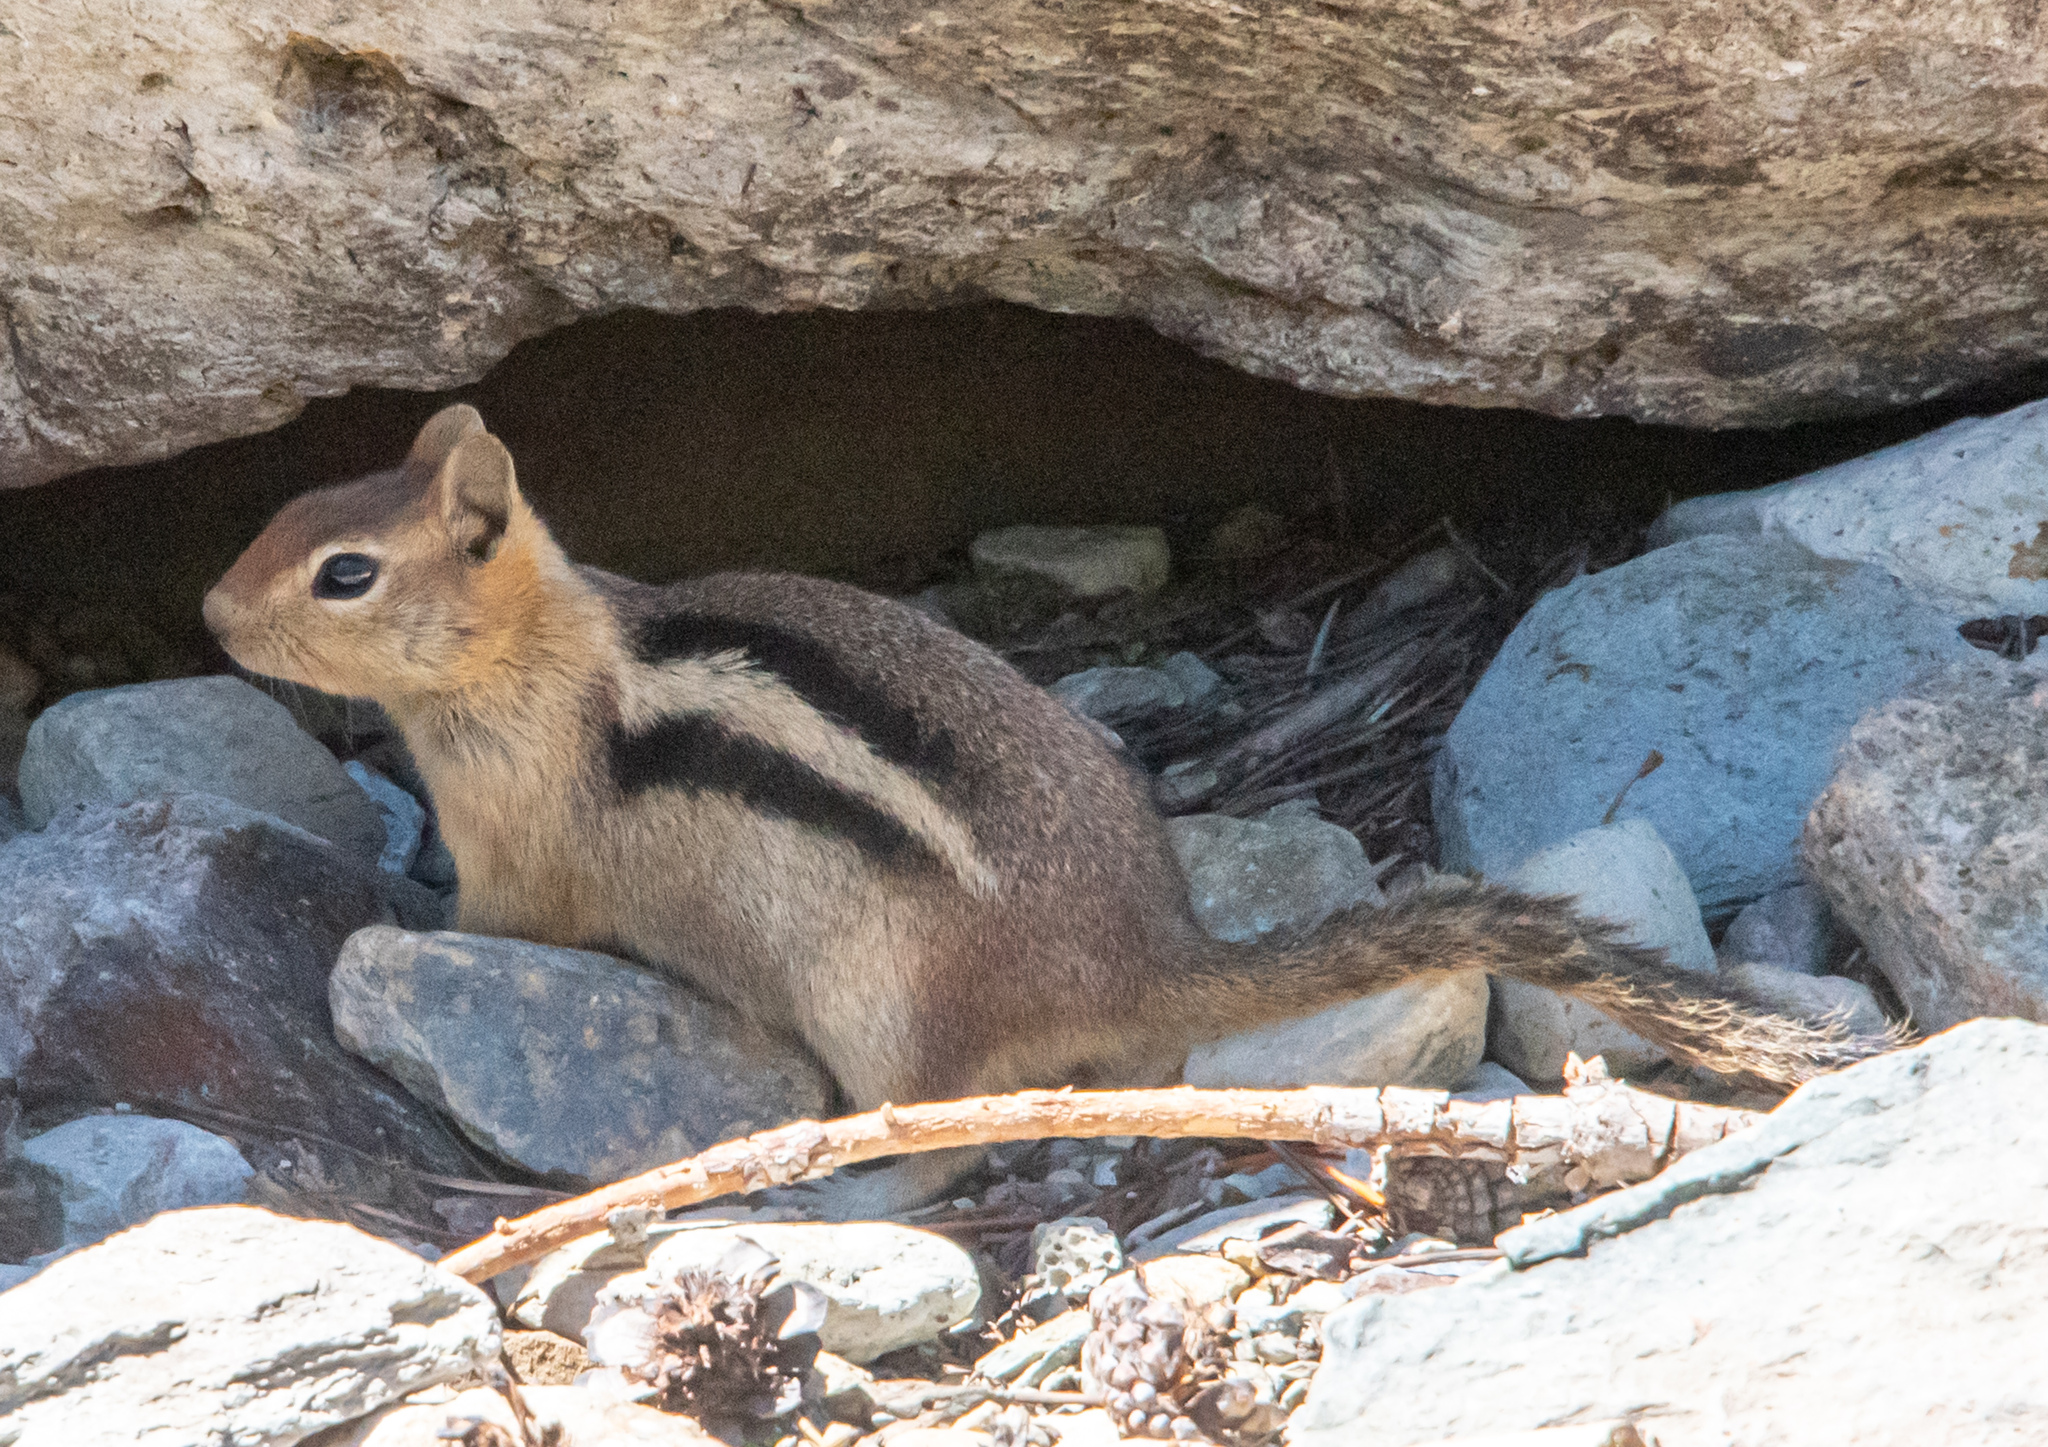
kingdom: Animalia
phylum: Chordata
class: Mammalia
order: Rodentia
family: Sciuridae
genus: Callospermophilus
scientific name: Callospermophilus lateralis
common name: Golden-mantled ground squirrel
